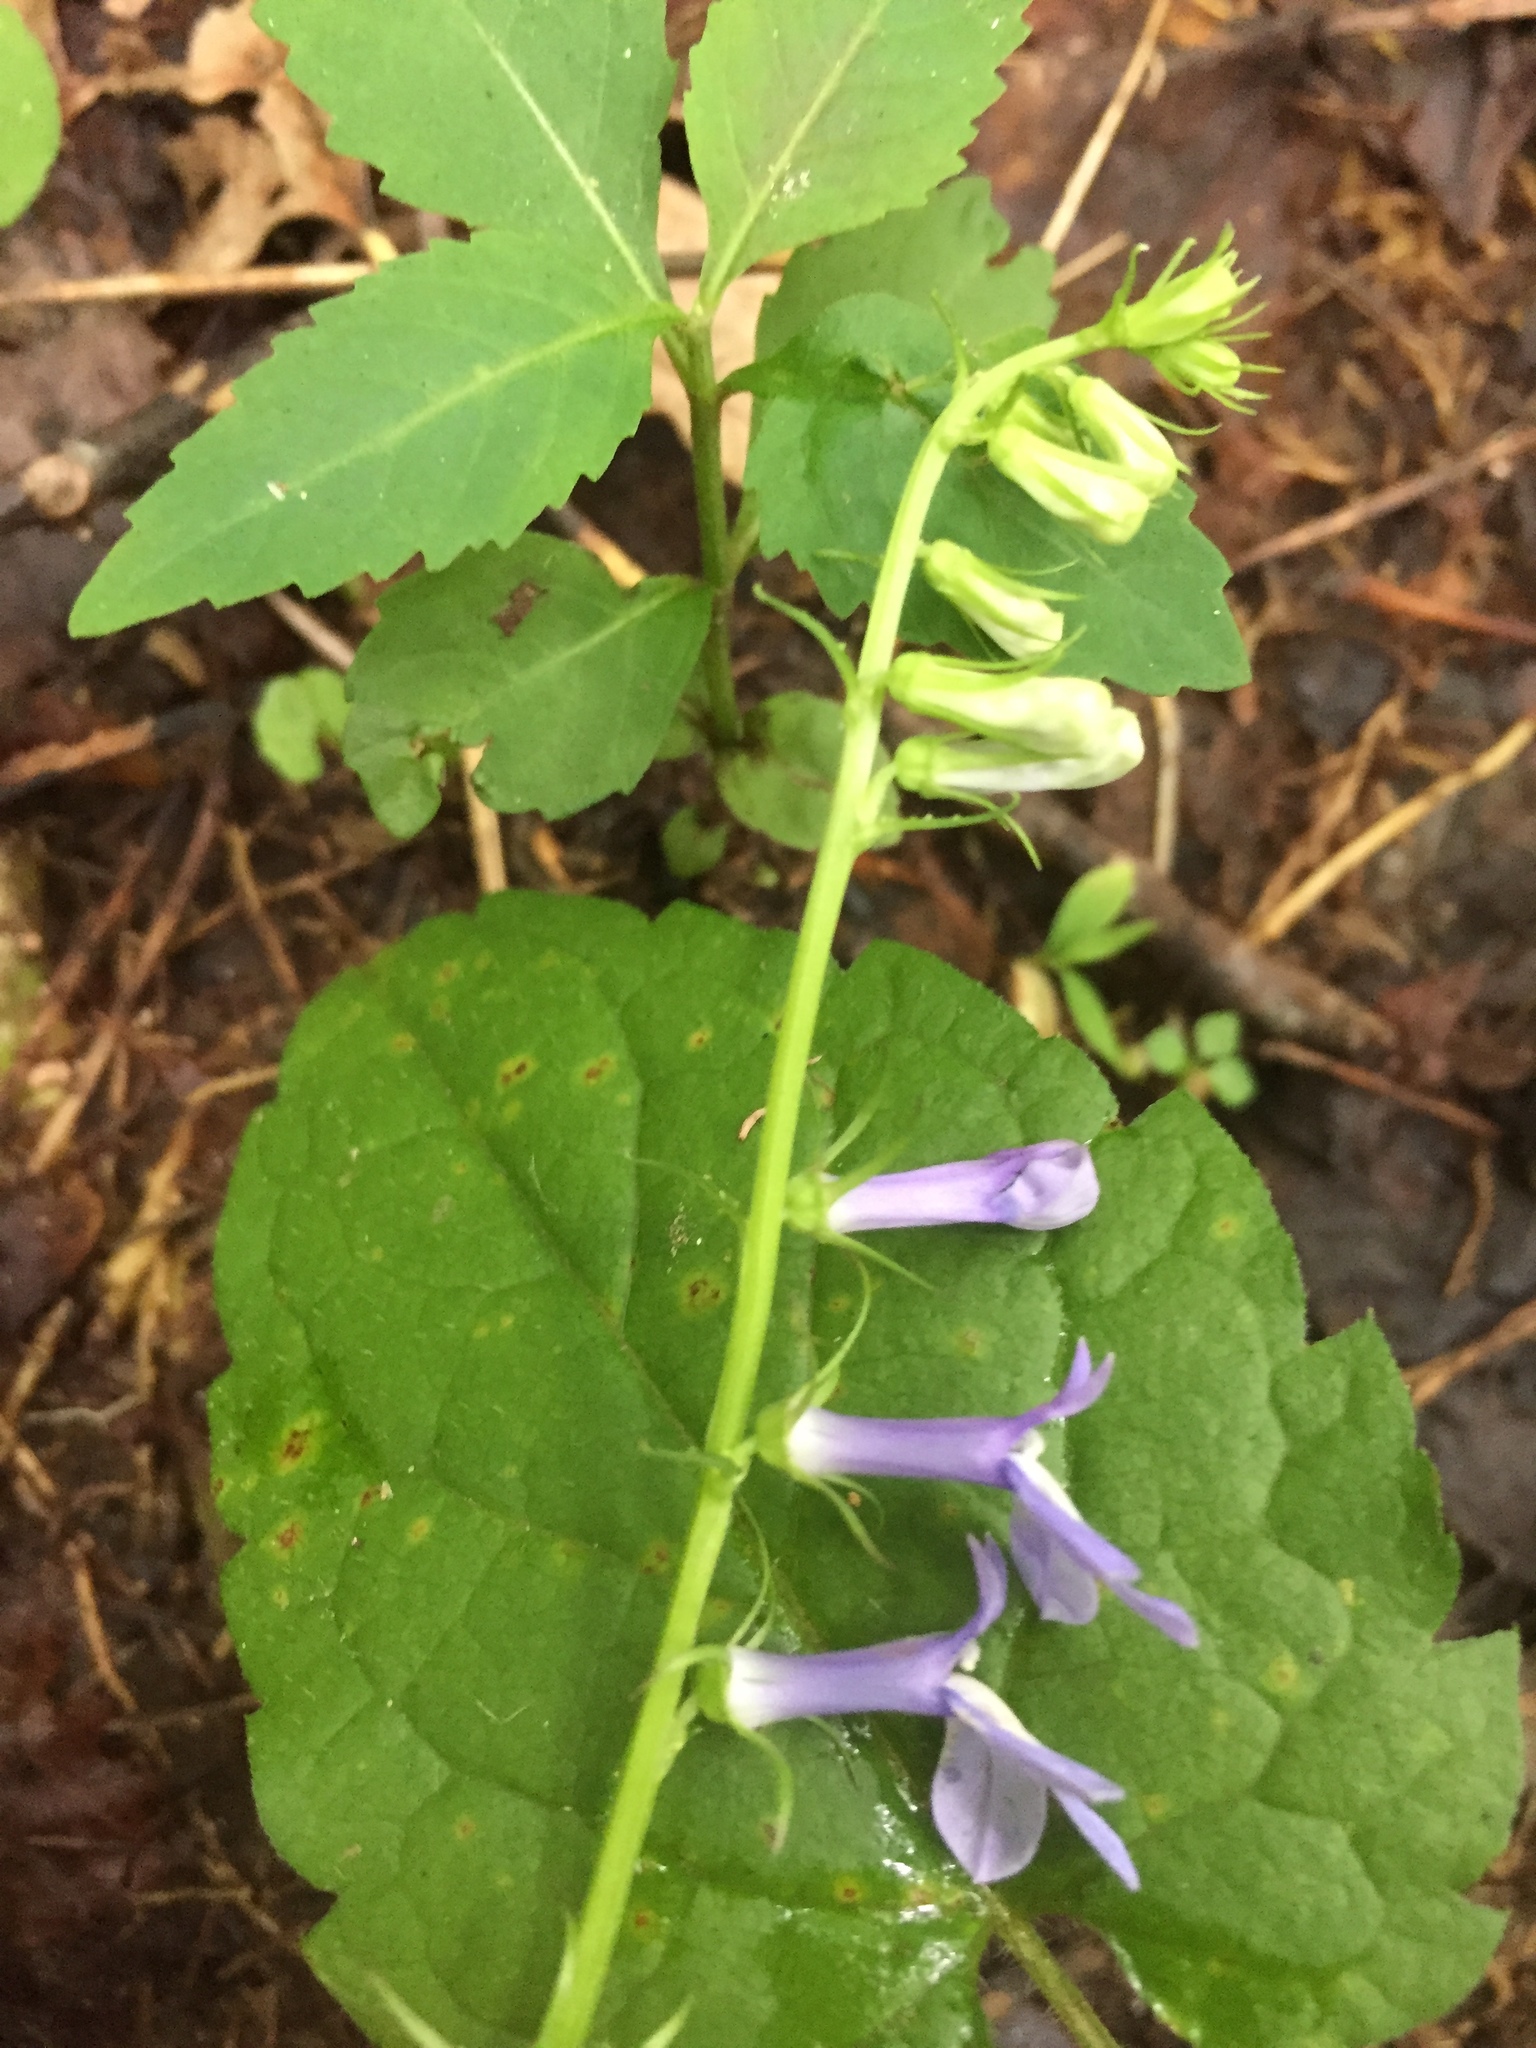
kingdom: Plantae
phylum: Tracheophyta
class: Magnoliopsida
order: Asterales
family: Campanulaceae
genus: Lobelia
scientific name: Lobelia amoena
